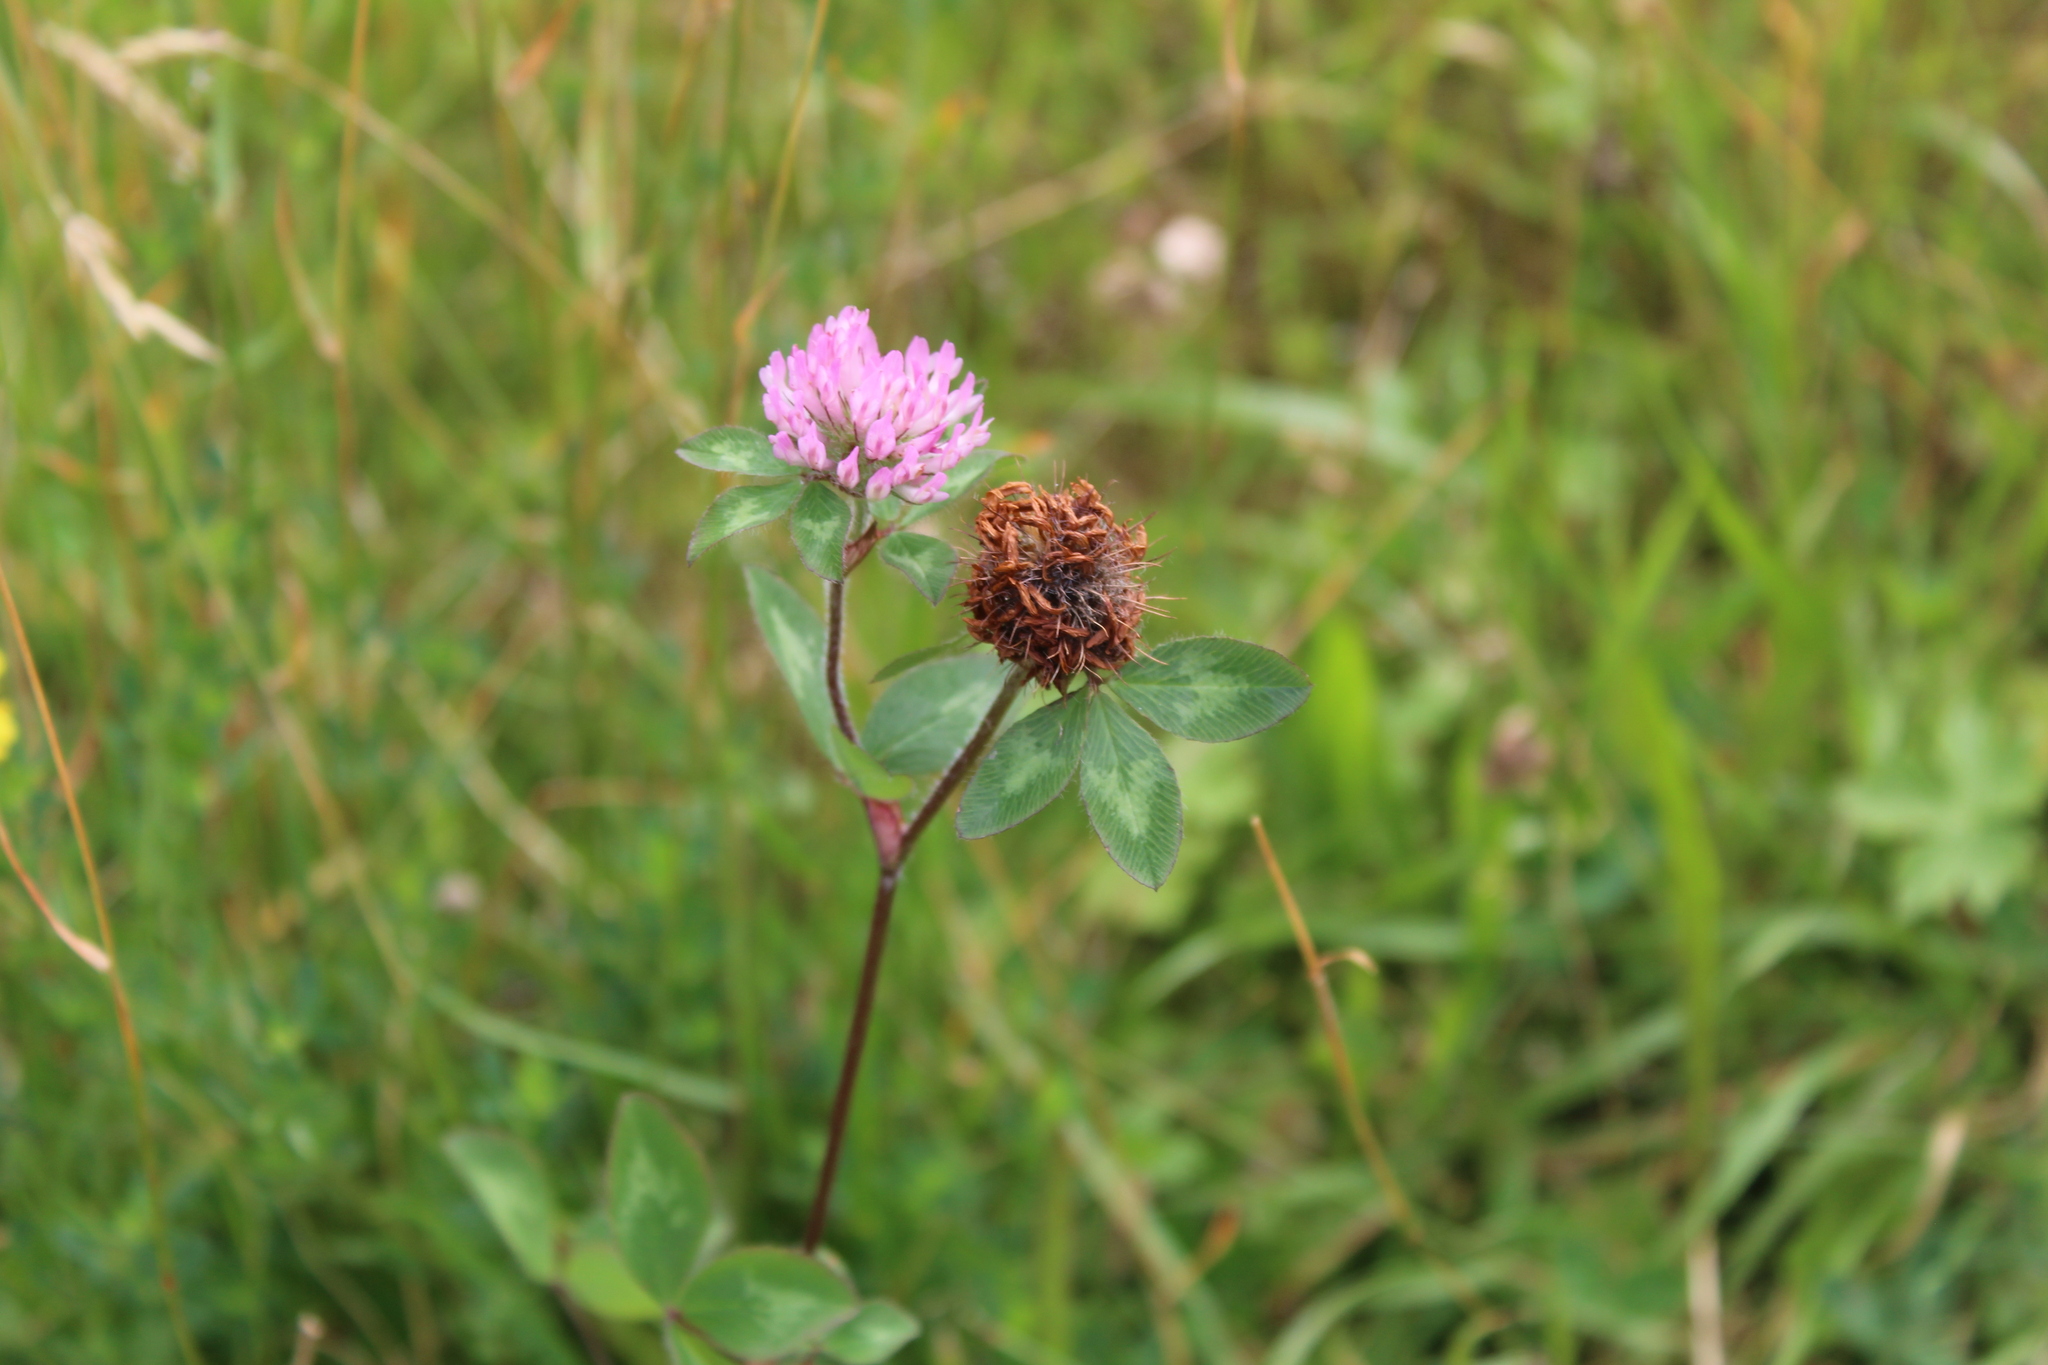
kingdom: Plantae
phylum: Tracheophyta
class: Magnoliopsida
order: Fabales
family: Fabaceae
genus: Trifolium
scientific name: Trifolium pratense
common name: Red clover
